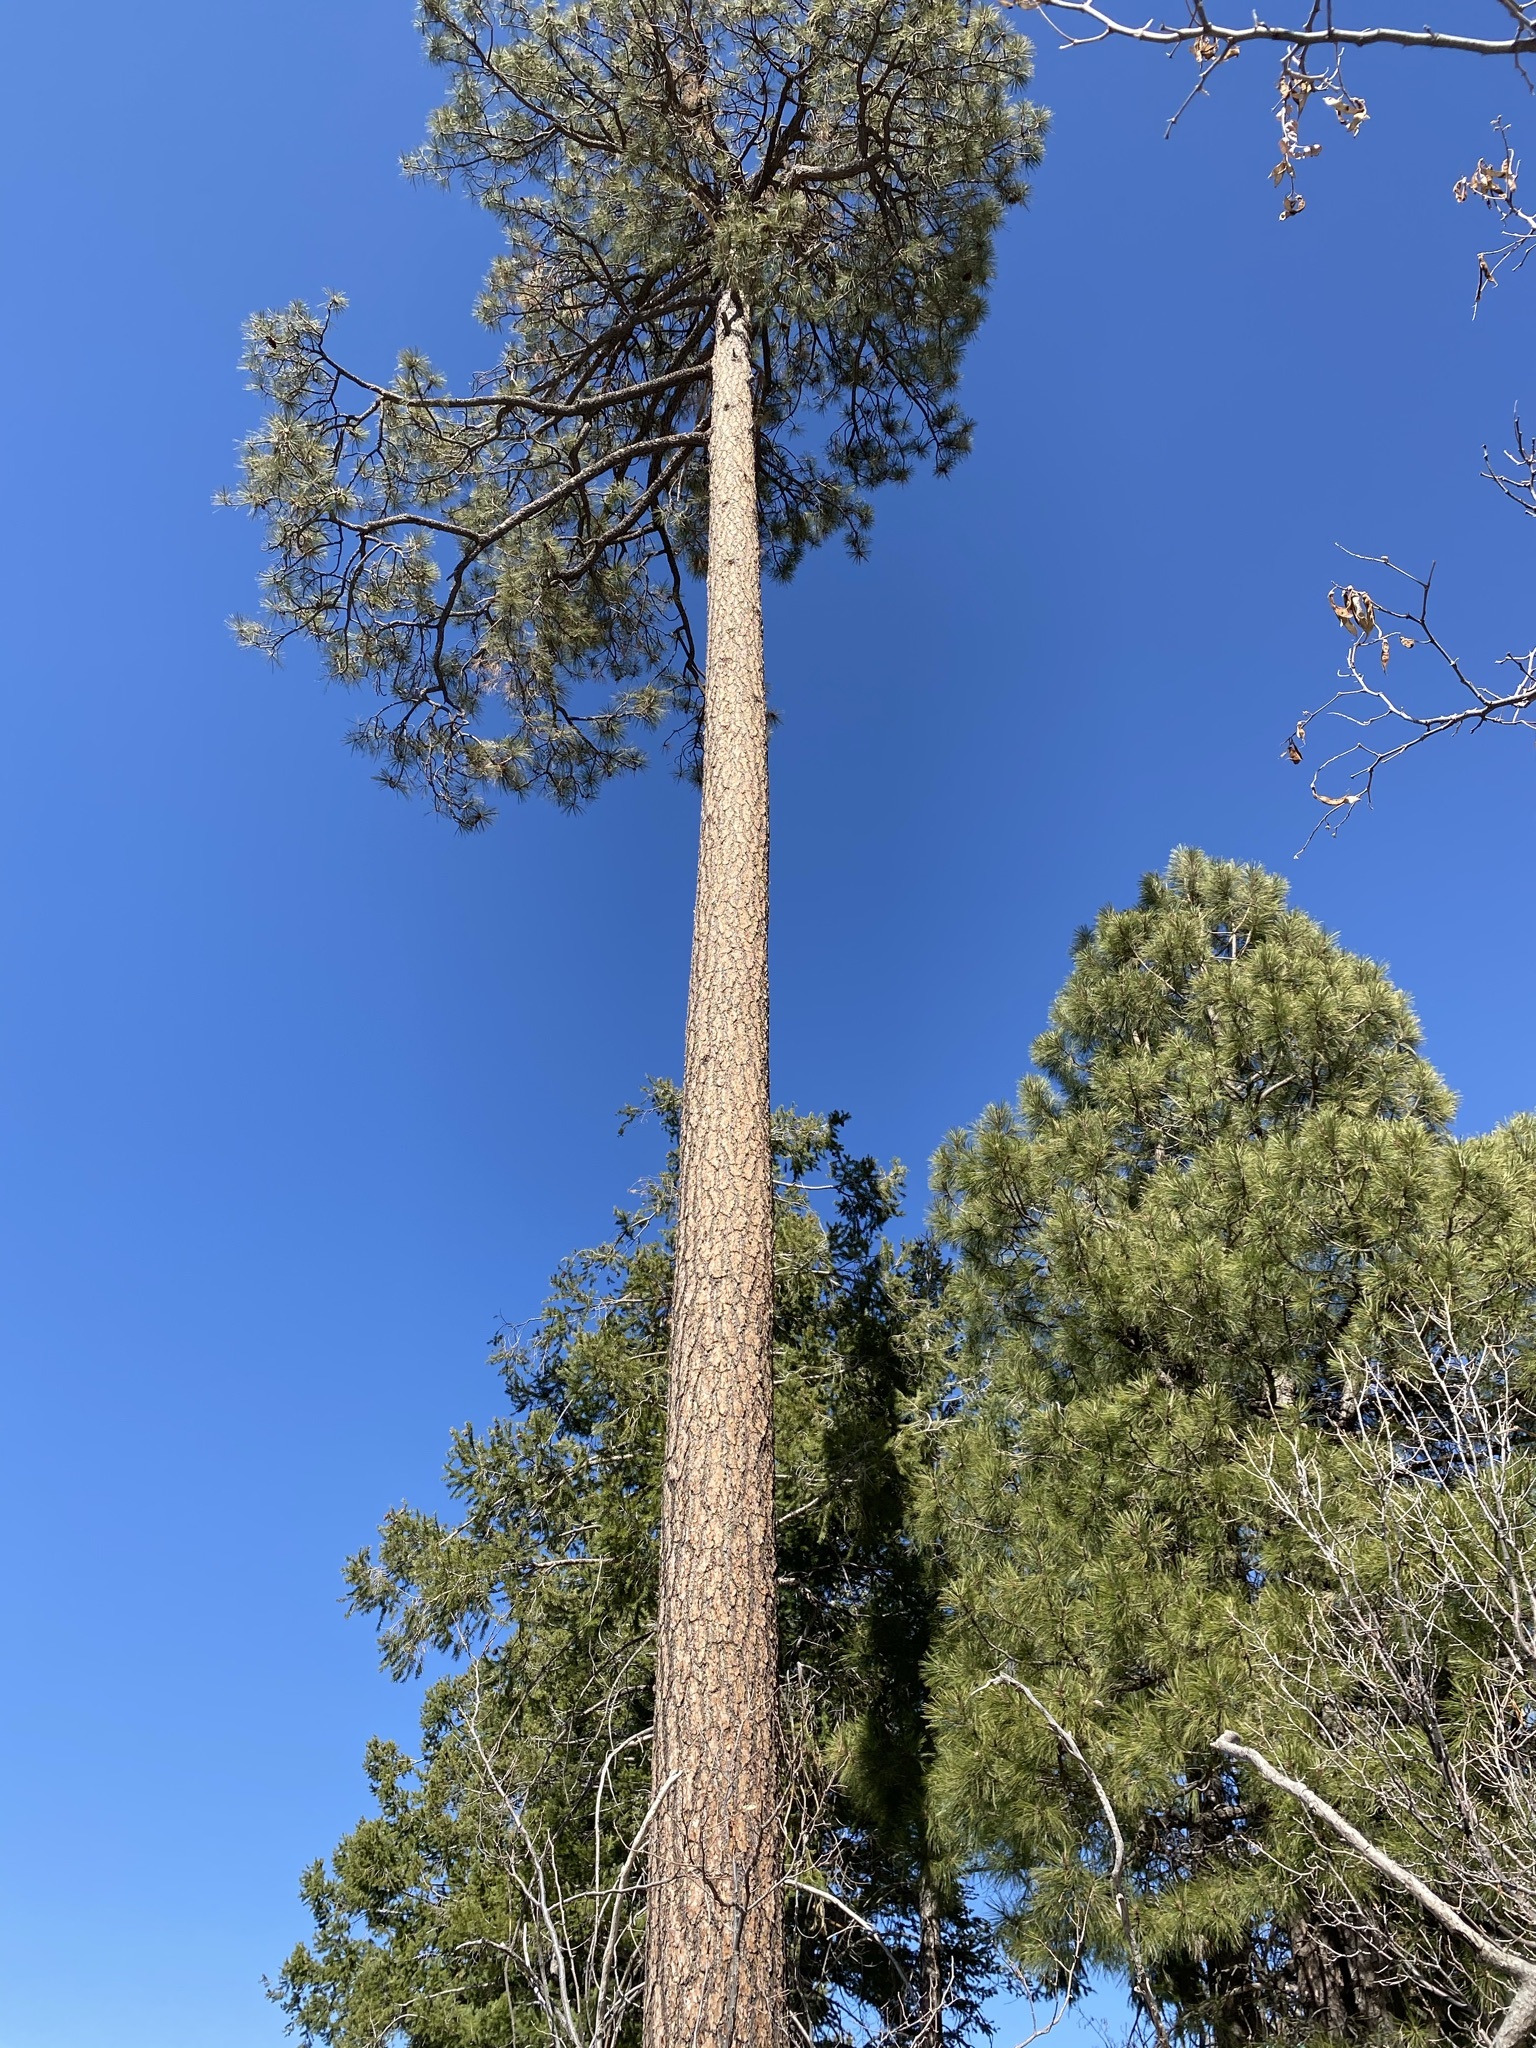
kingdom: Plantae
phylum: Tracheophyta
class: Pinopsida
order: Pinales
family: Pinaceae
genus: Pinus
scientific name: Pinus ponderosa
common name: Western yellow-pine
